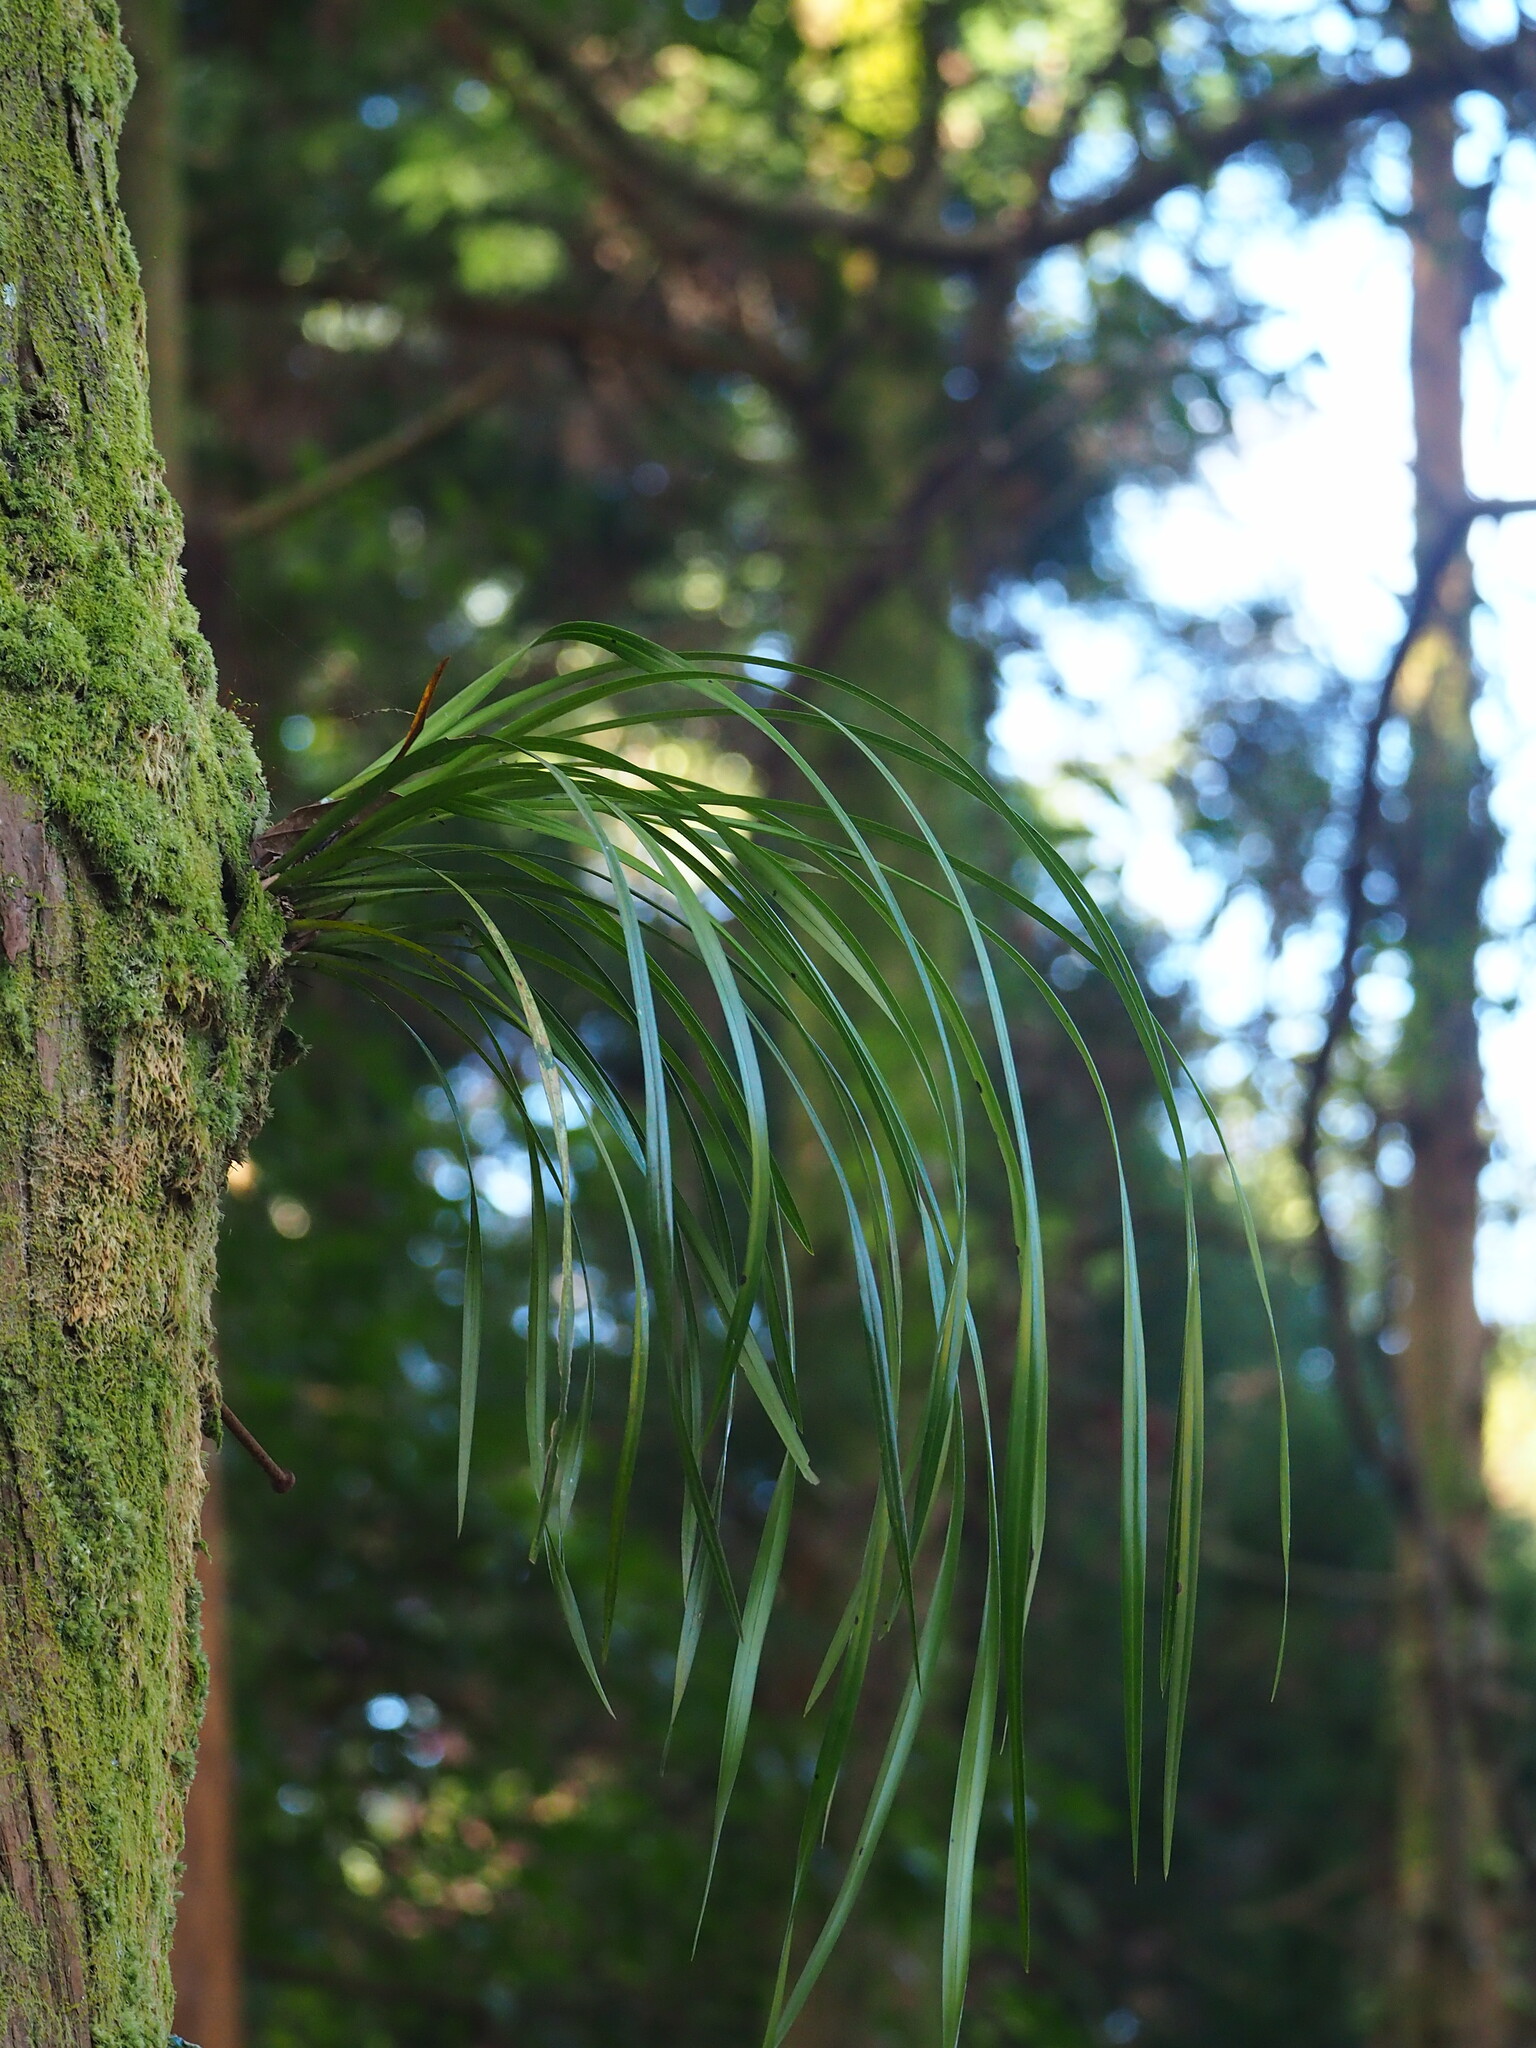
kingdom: Plantae
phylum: Tracheophyta
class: Liliopsida
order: Asparagales
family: Orchidaceae
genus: Cymbidium
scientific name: Cymbidium dayanum
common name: Orchid
